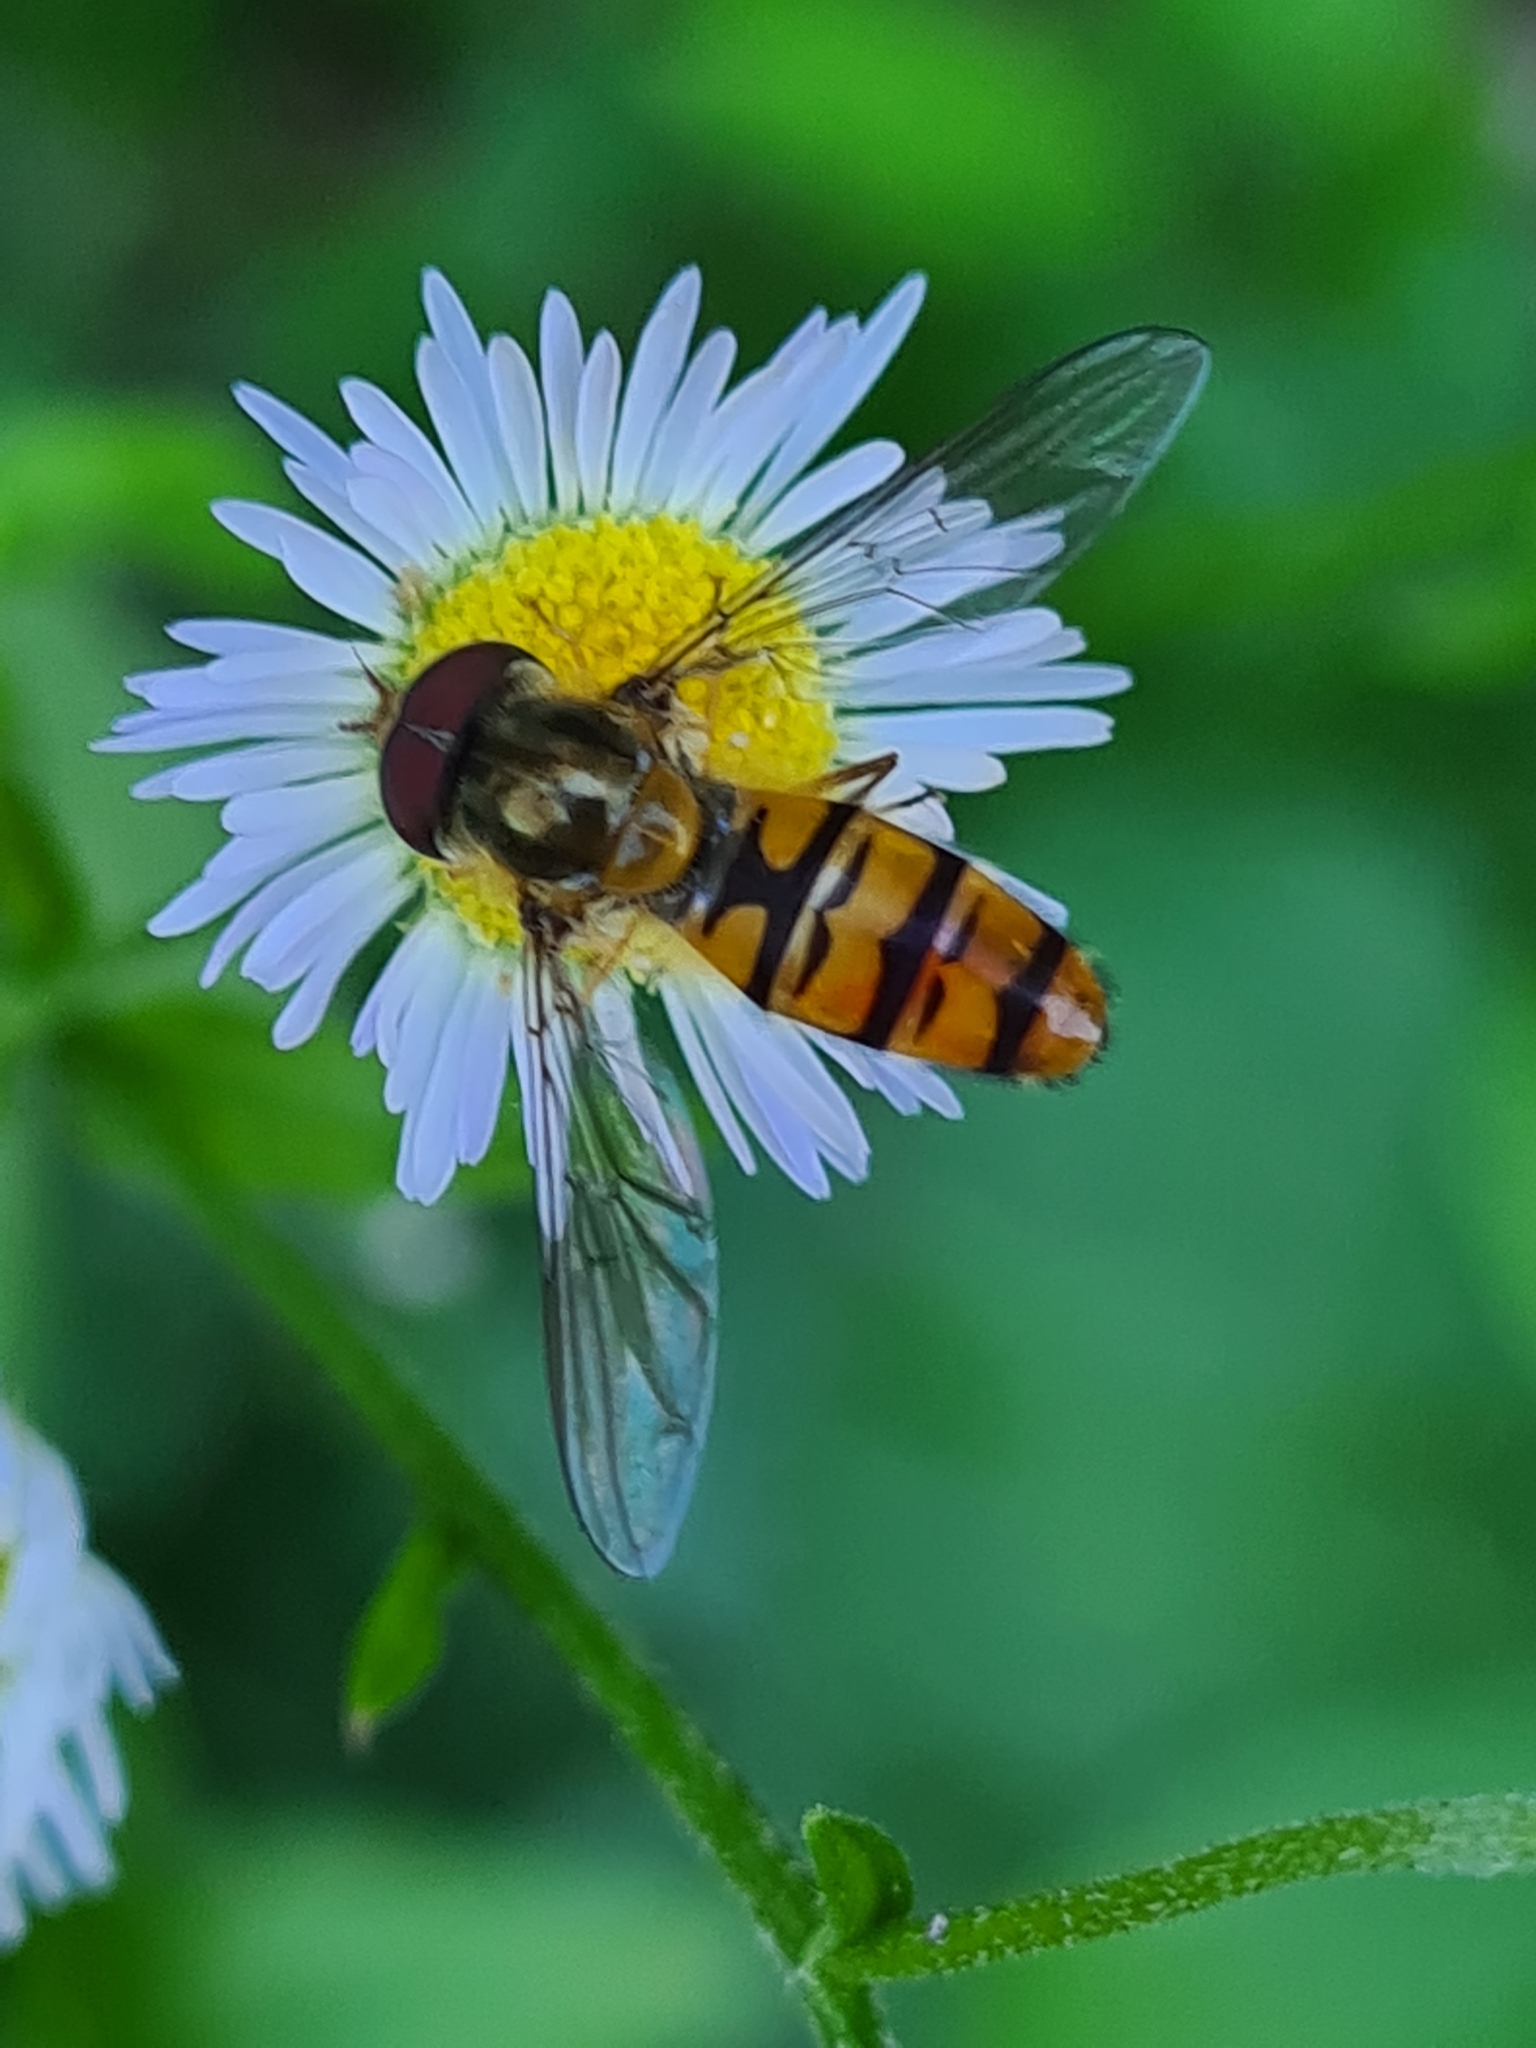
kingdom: Animalia
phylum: Arthropoda
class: Insecta
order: Diptera
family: Syrphidae
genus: Episyrphus
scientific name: Episyrphus balteatus
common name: Marmalade hoverfly
